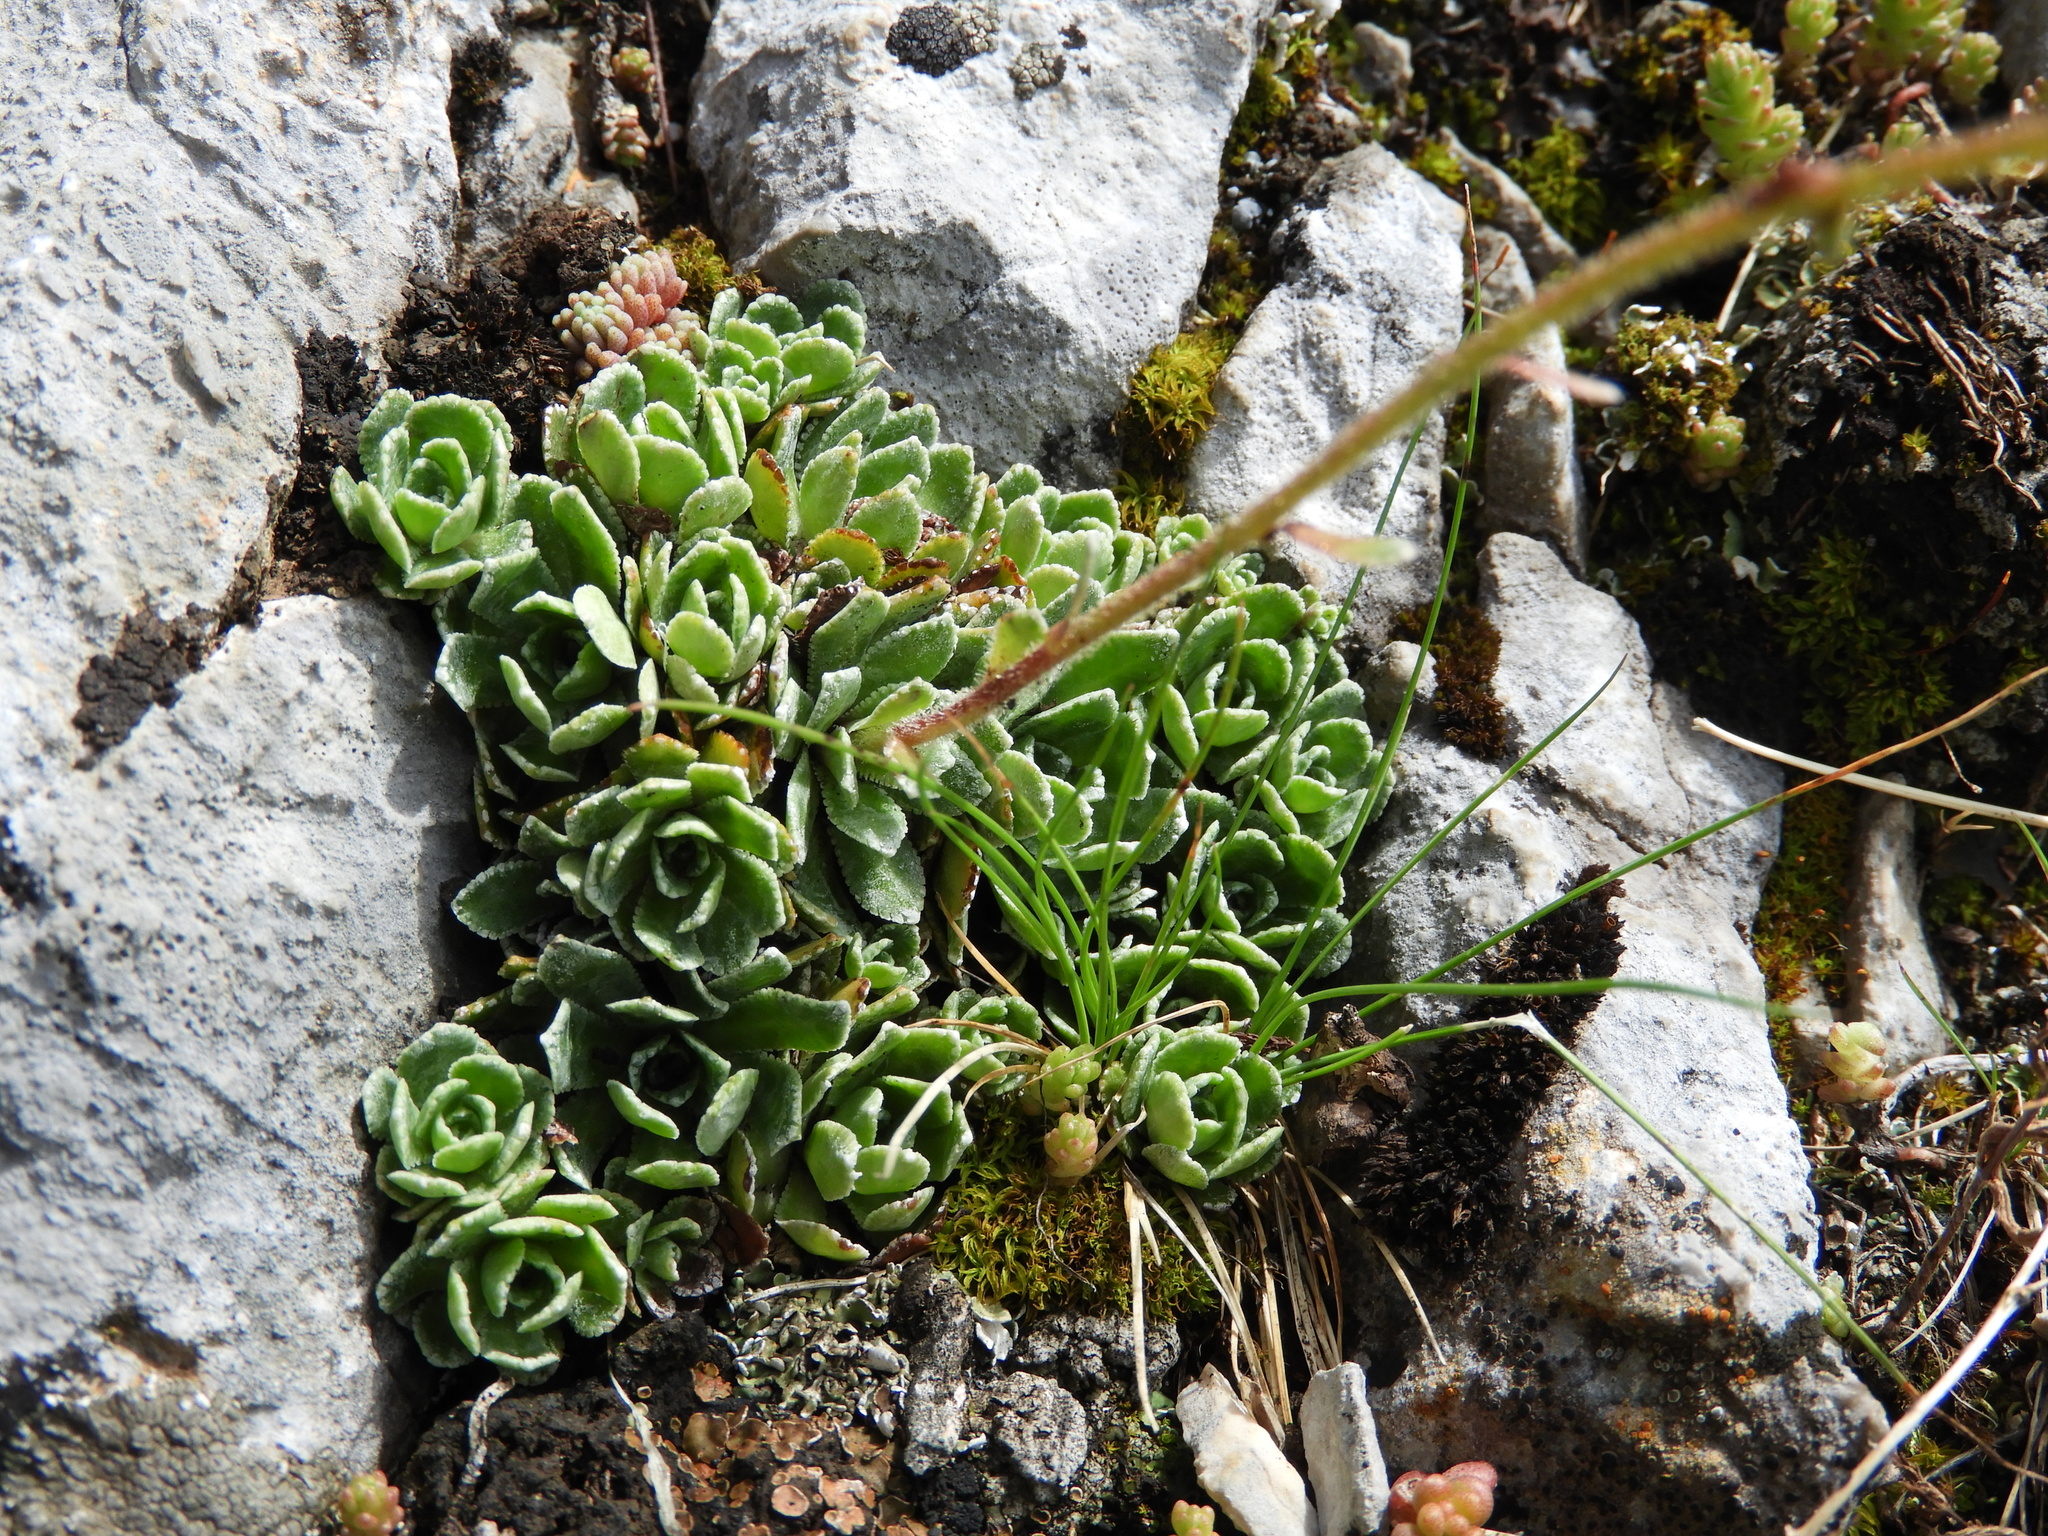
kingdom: Plantae
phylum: Tracheophyta
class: Magnoliopsida
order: Saxifragales
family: Saxifragaceae
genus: Saxifraga
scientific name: Saxifraga paniculata
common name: Livelong saxifrage
